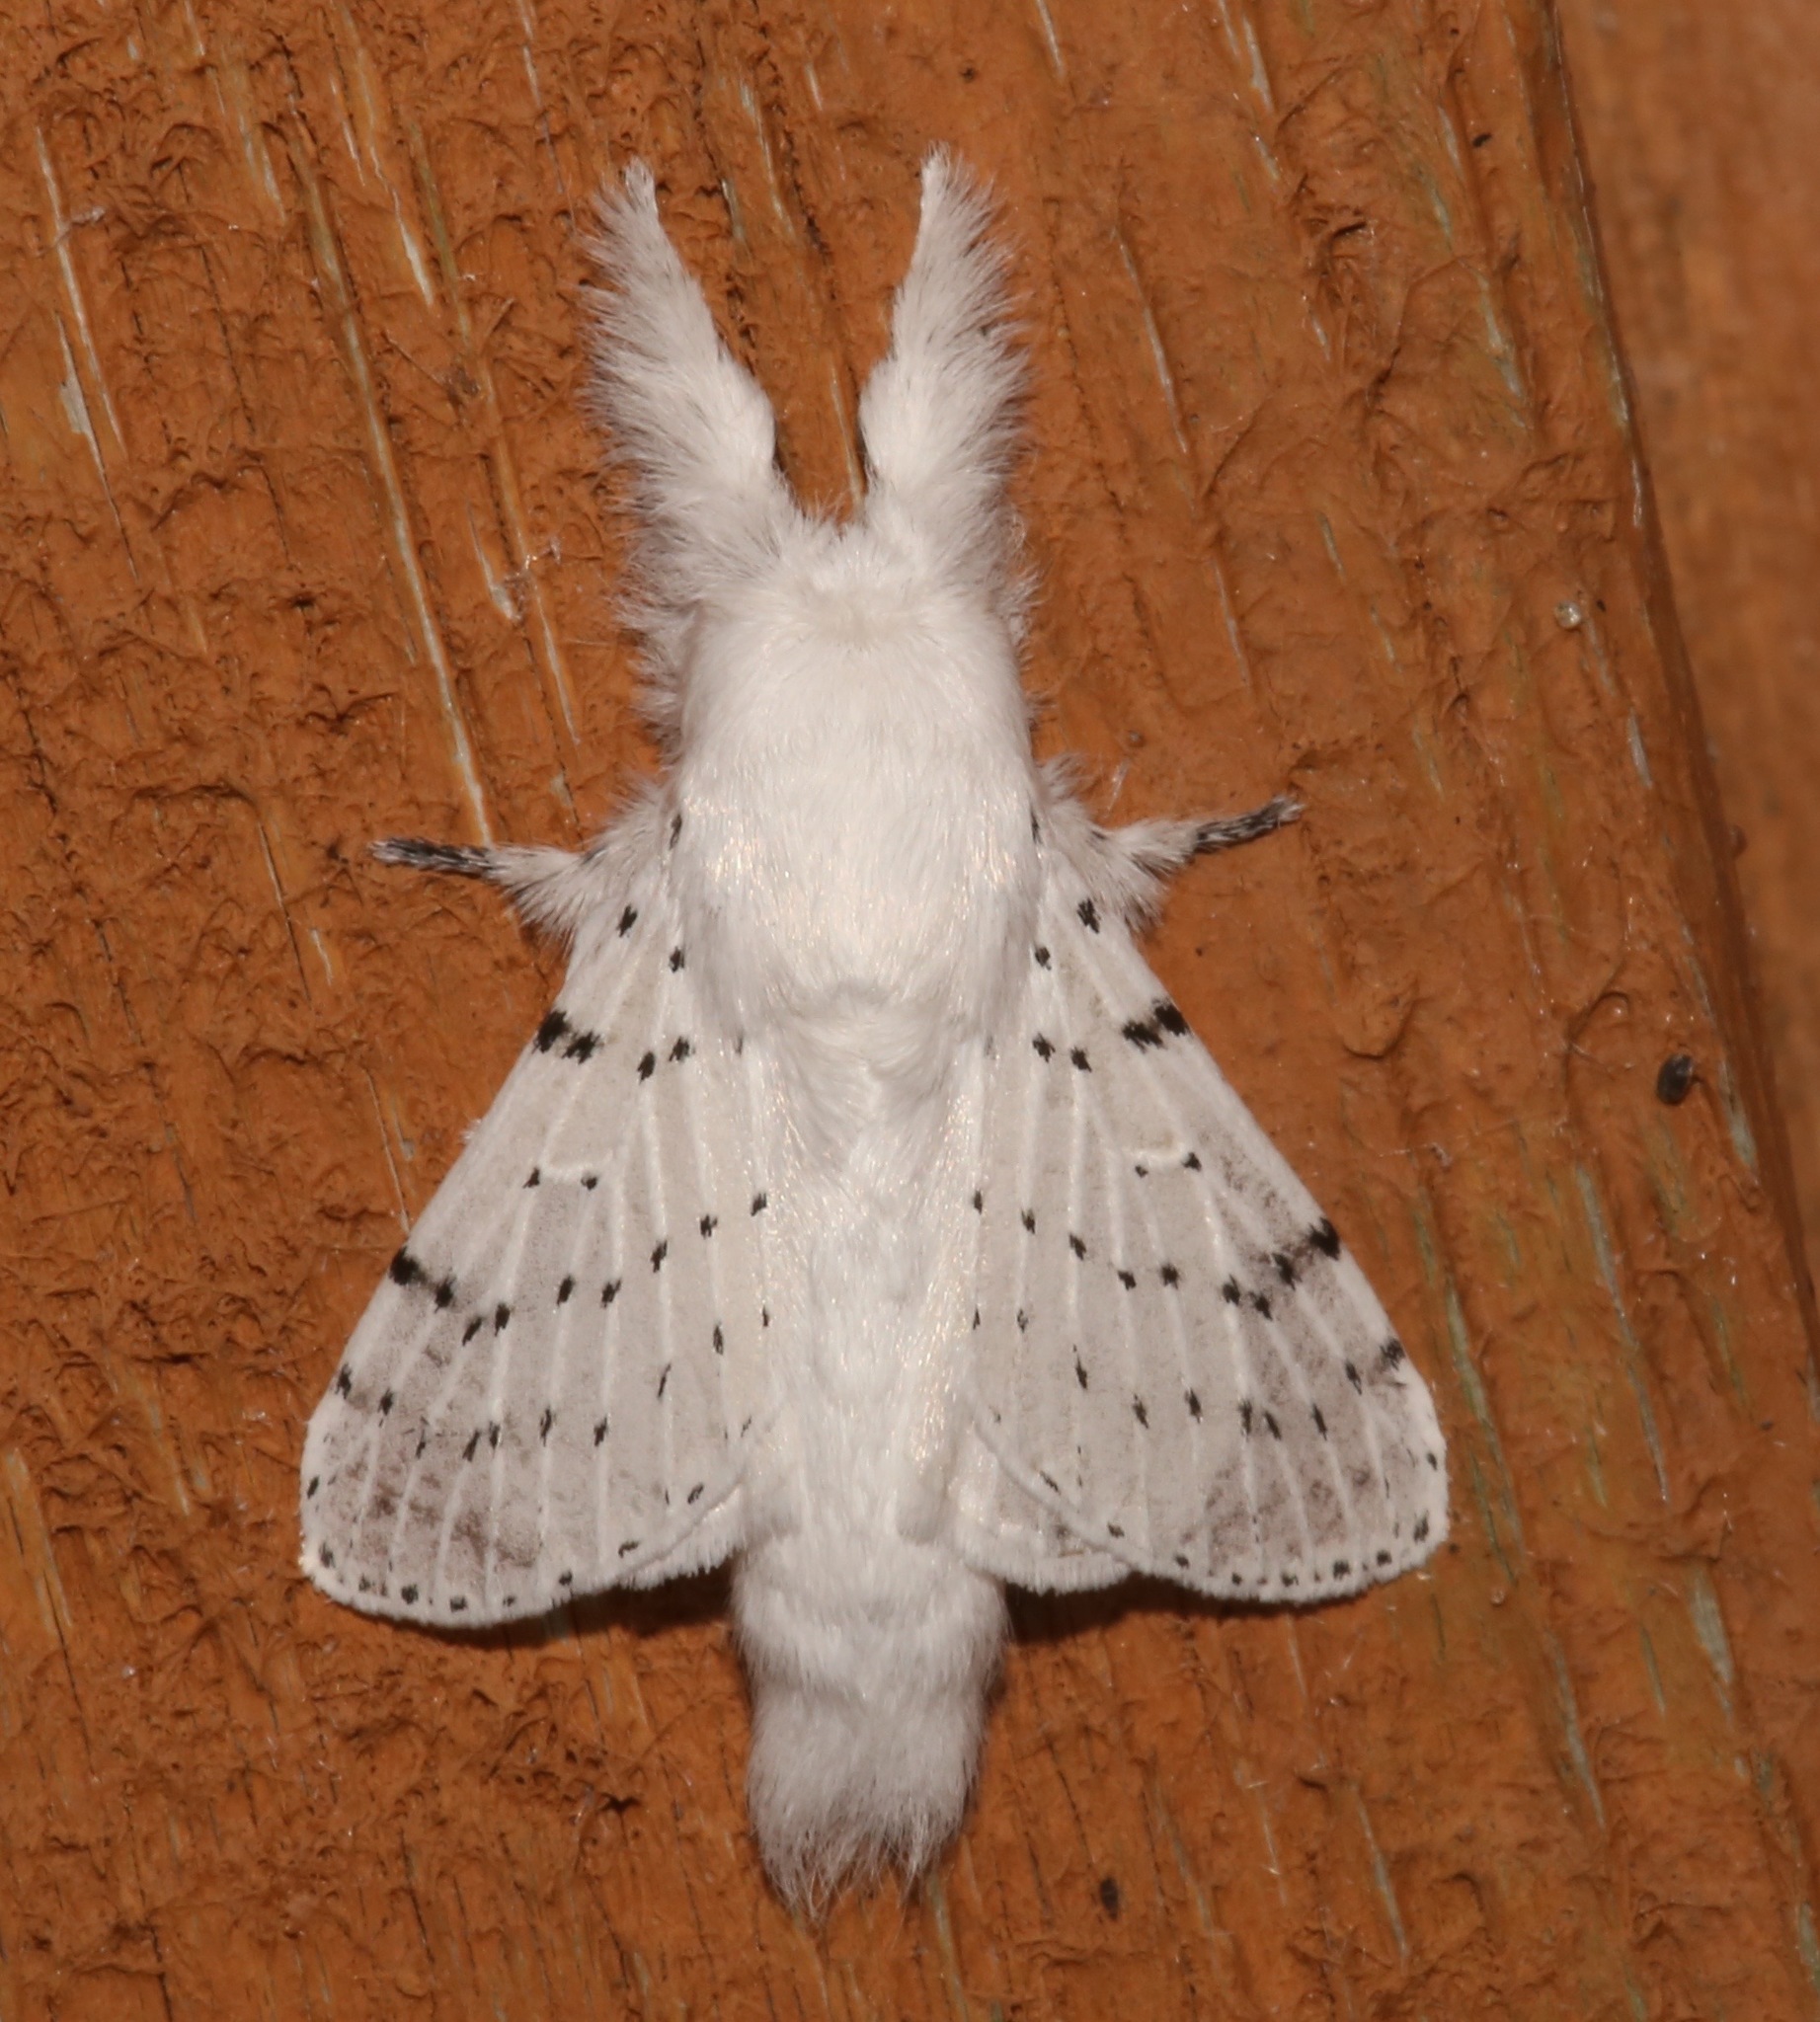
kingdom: Animalia
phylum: Arthropoda
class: Insecta
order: Lepidoptera
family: Lasiocampidae
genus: Artace
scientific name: Artace cribrarius
